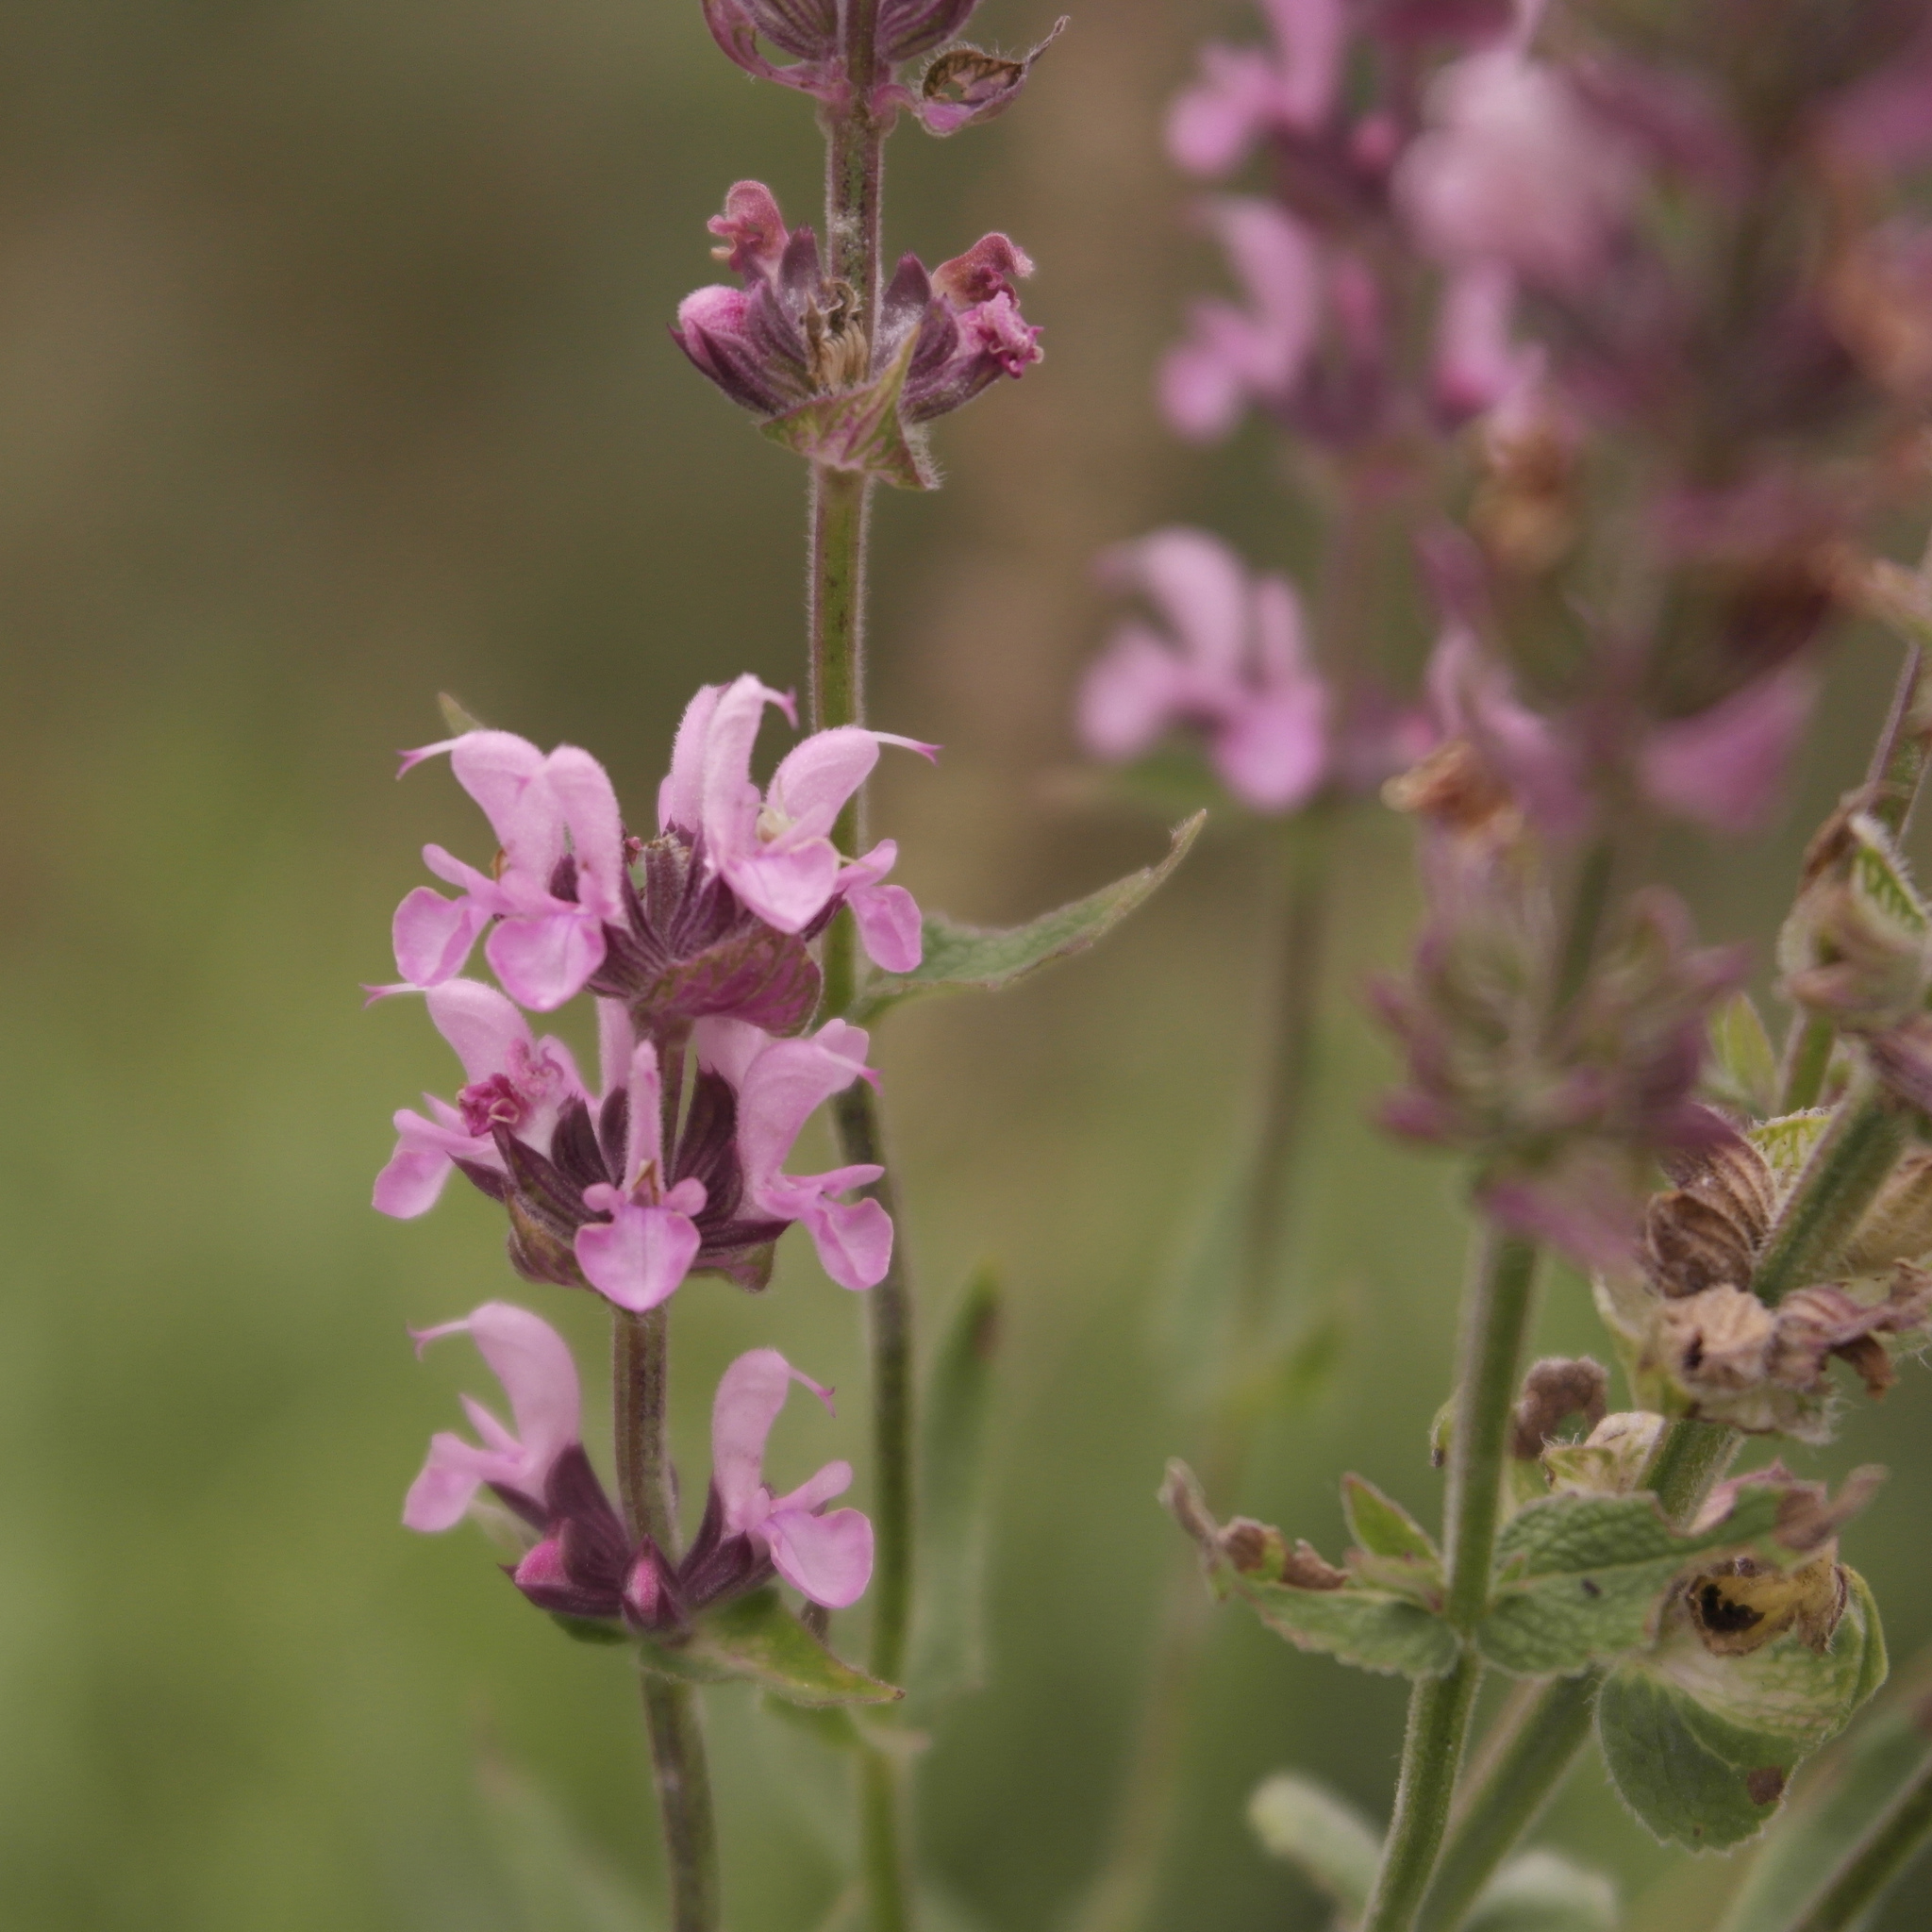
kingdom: Plantae
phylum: Tracheophyta
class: Magnoliopsida
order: Lamiales
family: Lamiaceae
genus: Salvia
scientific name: Salvia nemorosa
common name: Balkan clary
